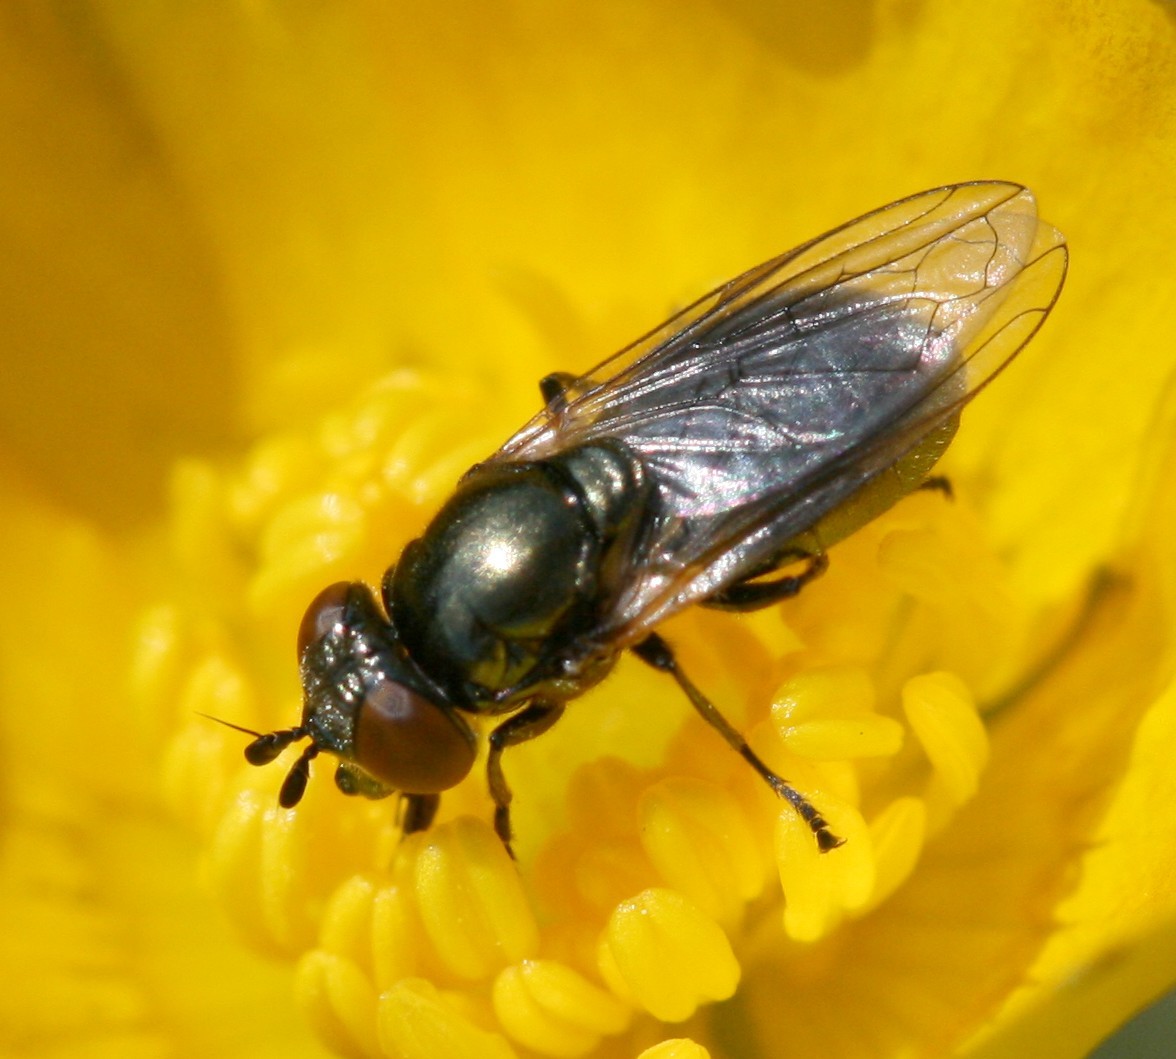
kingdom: Animalia
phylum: Arthropoda
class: Insecta
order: Diptera
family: Syrphidae
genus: Lejogaster
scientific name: Lejogaster metallina
